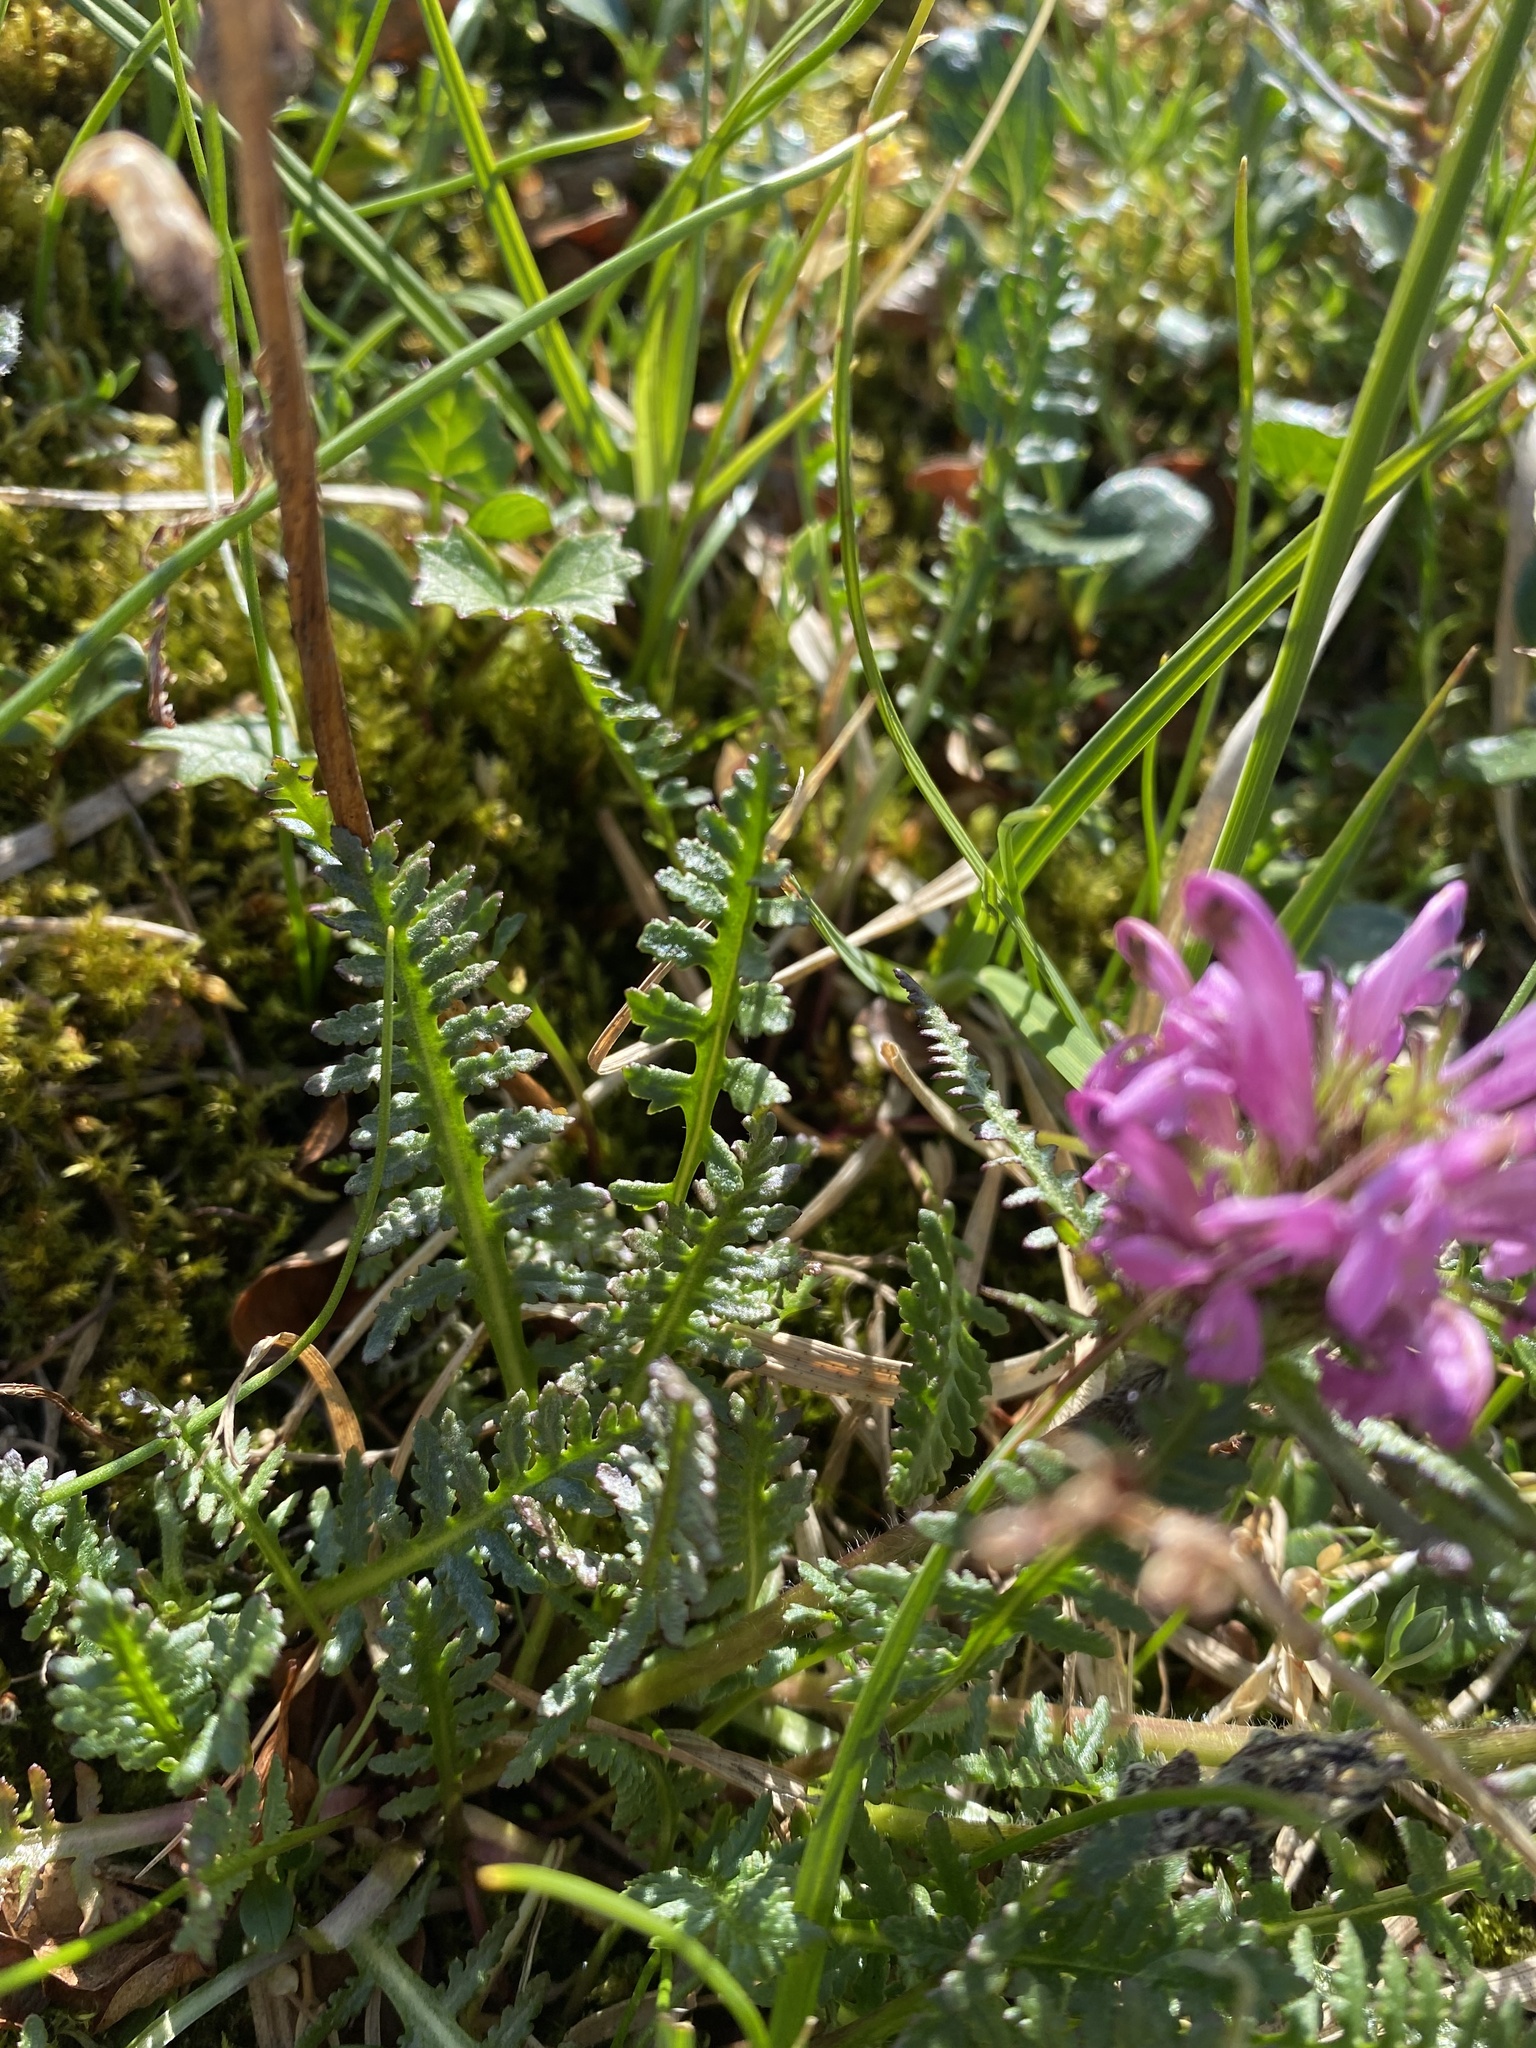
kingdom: Plantae
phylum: Tracheophyta
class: Magnoliopsida
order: Lamiales
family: Orobanchaceae
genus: Pedicularis
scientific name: Pedicularis interior
